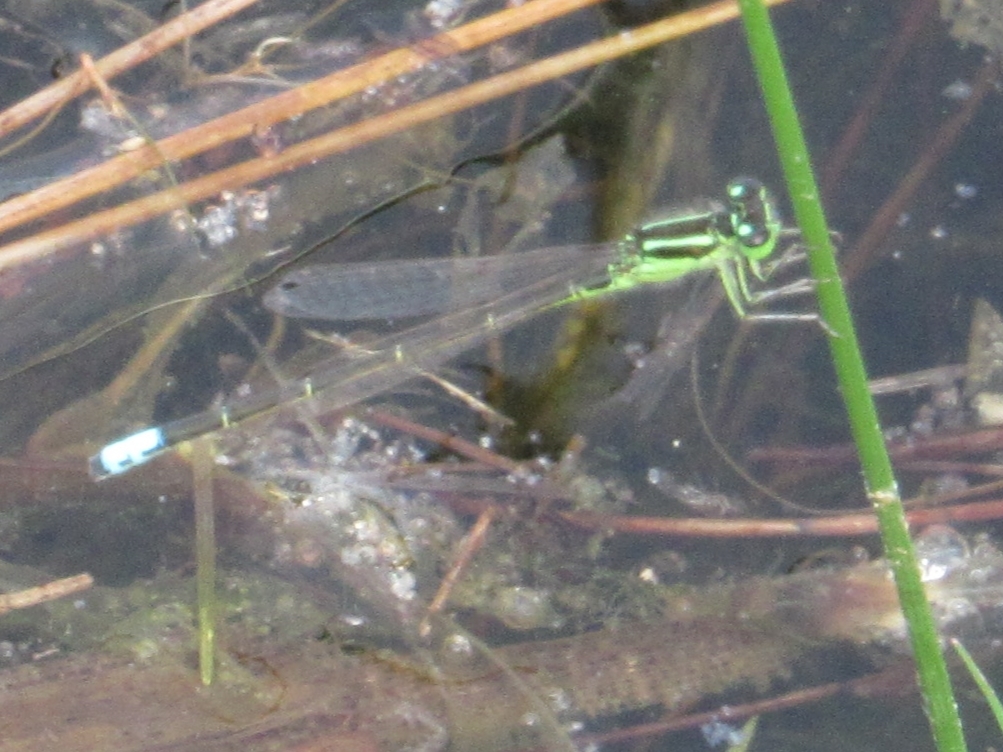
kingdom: Animalia
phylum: Arthropoda
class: Insecta
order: Odonata
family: Coenagrionidae
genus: Ischnura
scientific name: Ischnura verticalis
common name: Eastern forktail
